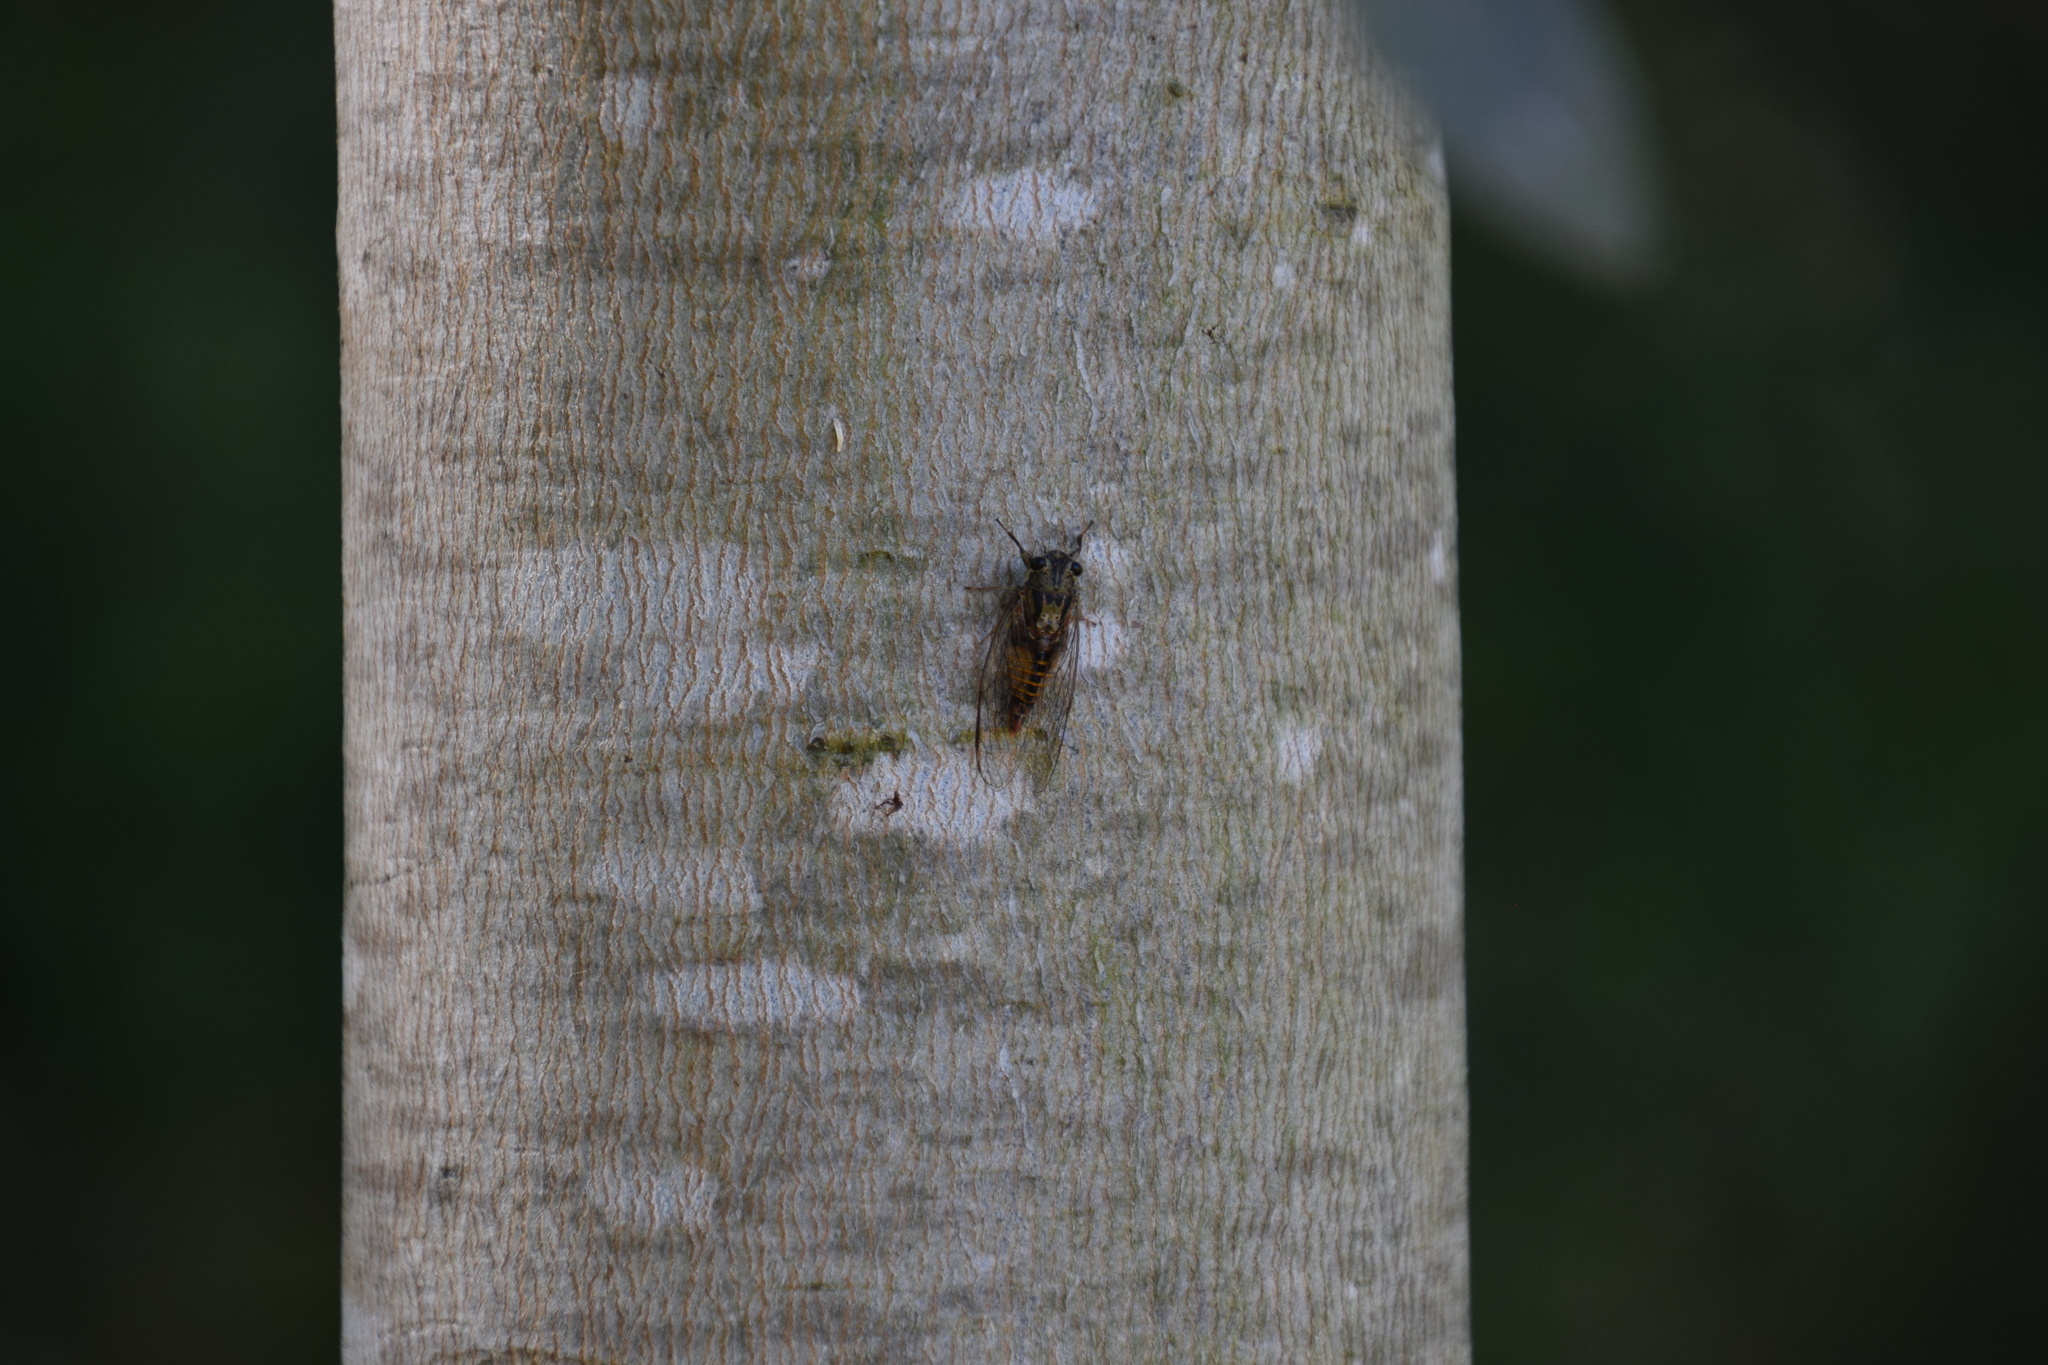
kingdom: Animalia
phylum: Arthropoda
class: Insecta
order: Hemiptera
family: Cicadidae
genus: Yoyetta
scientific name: Yoyetta celis
